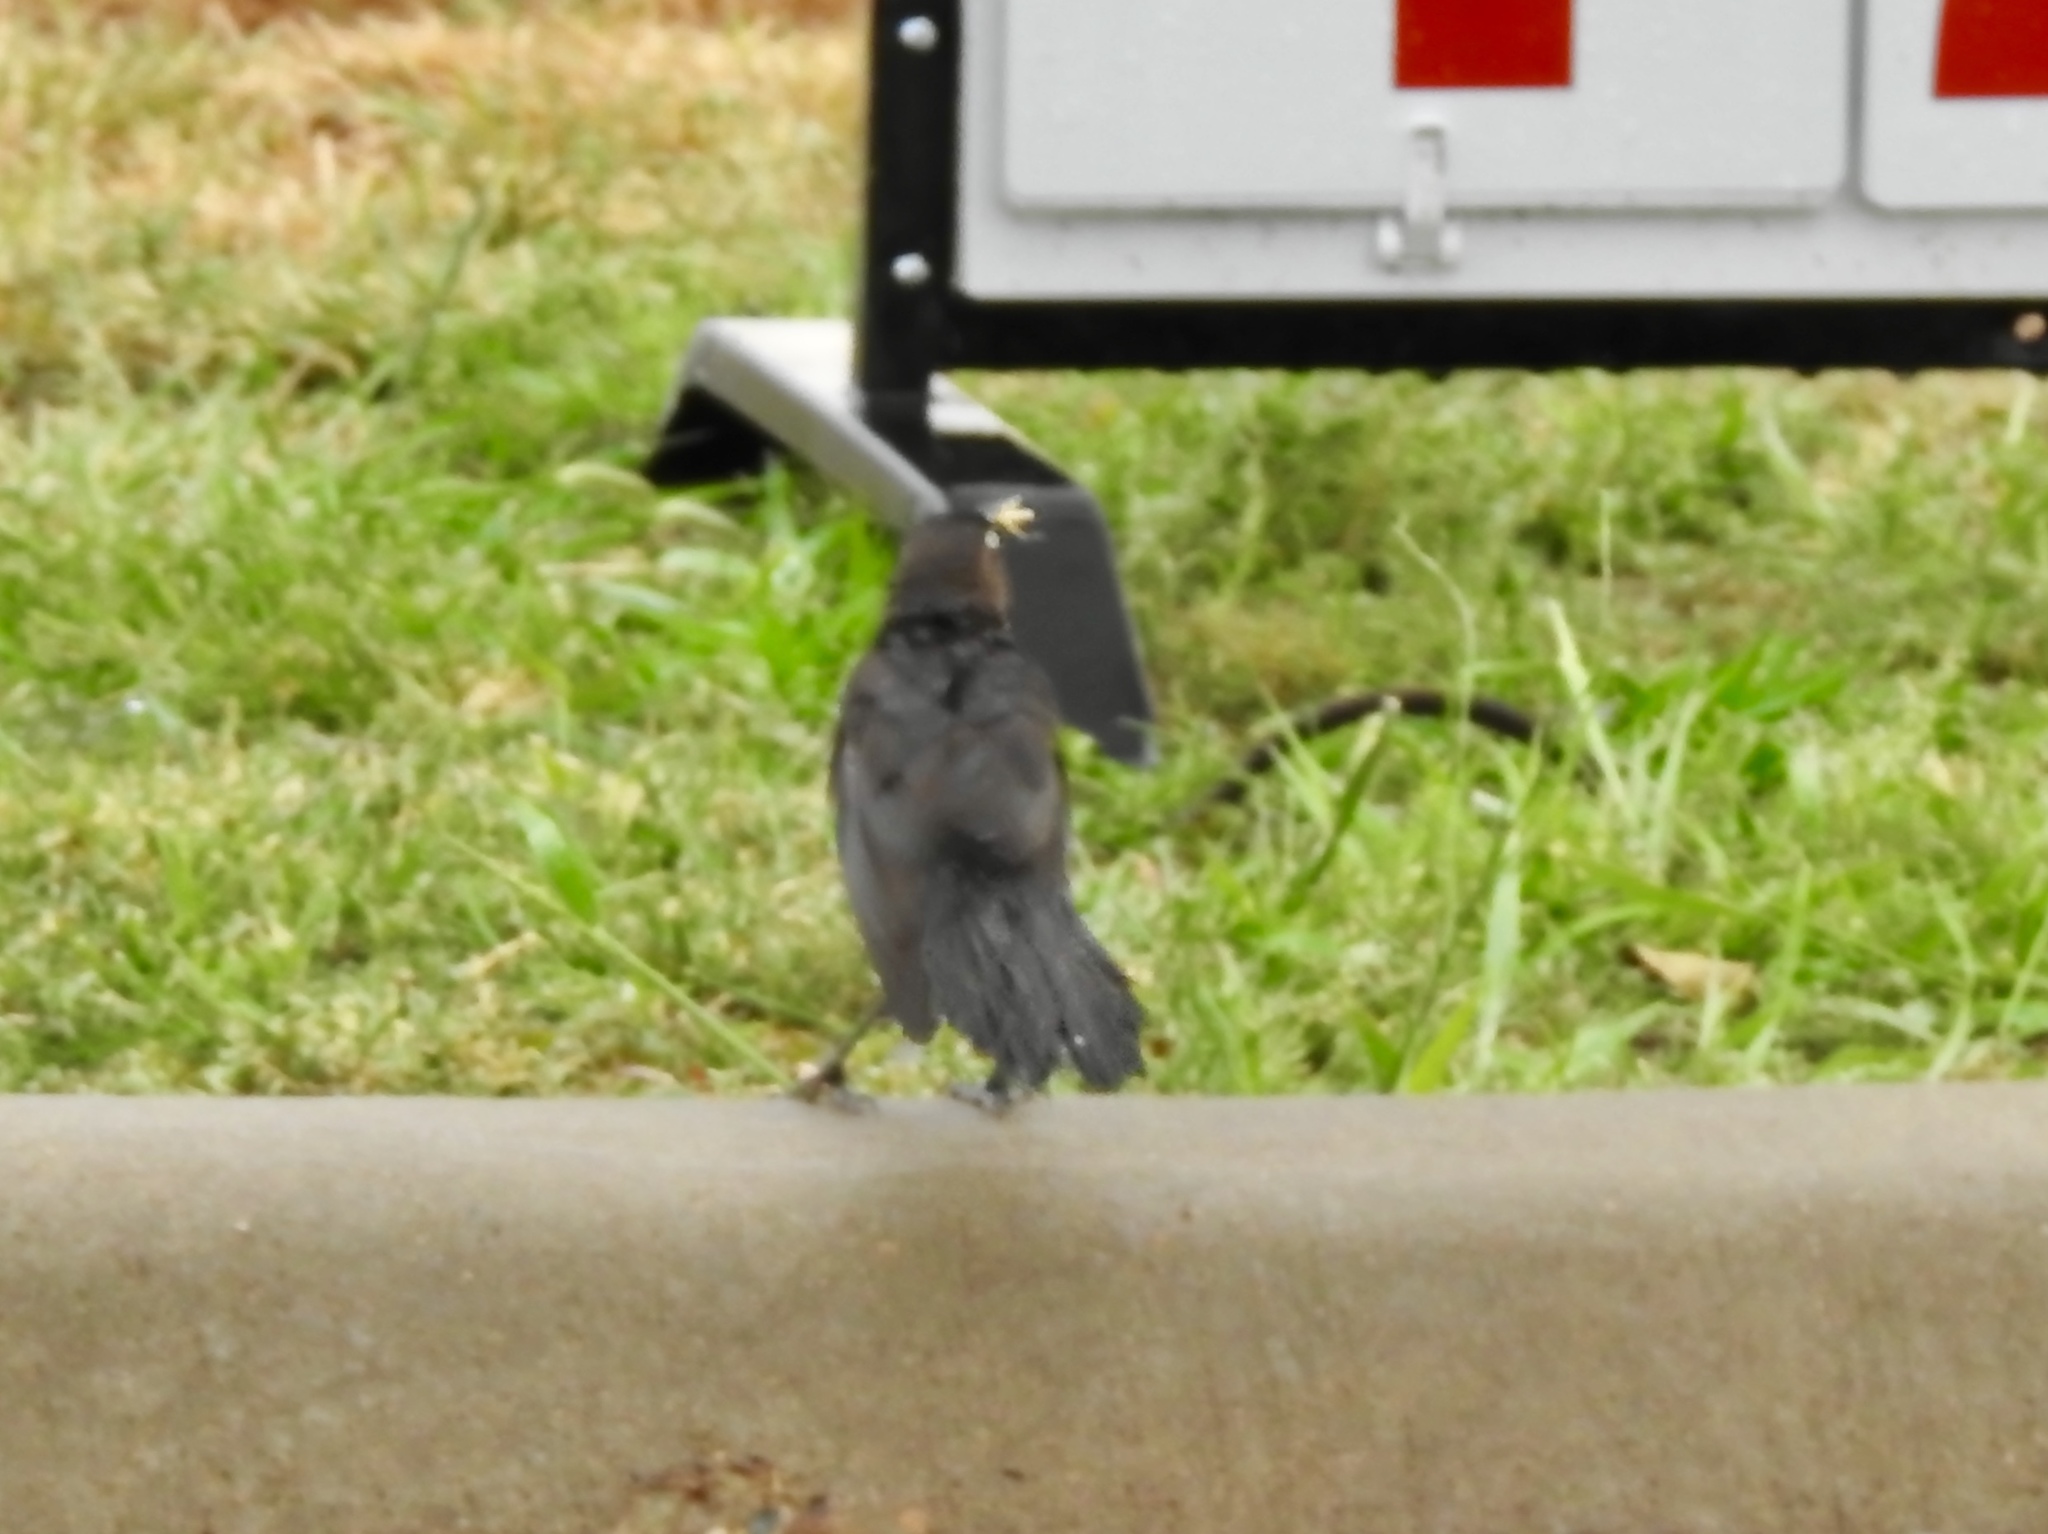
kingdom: Animalia
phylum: Chordata
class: Aves
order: Passeriformes
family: Icteridae
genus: Quiscalus
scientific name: Quiscalus mexicanus
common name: Great-tailed grackle
